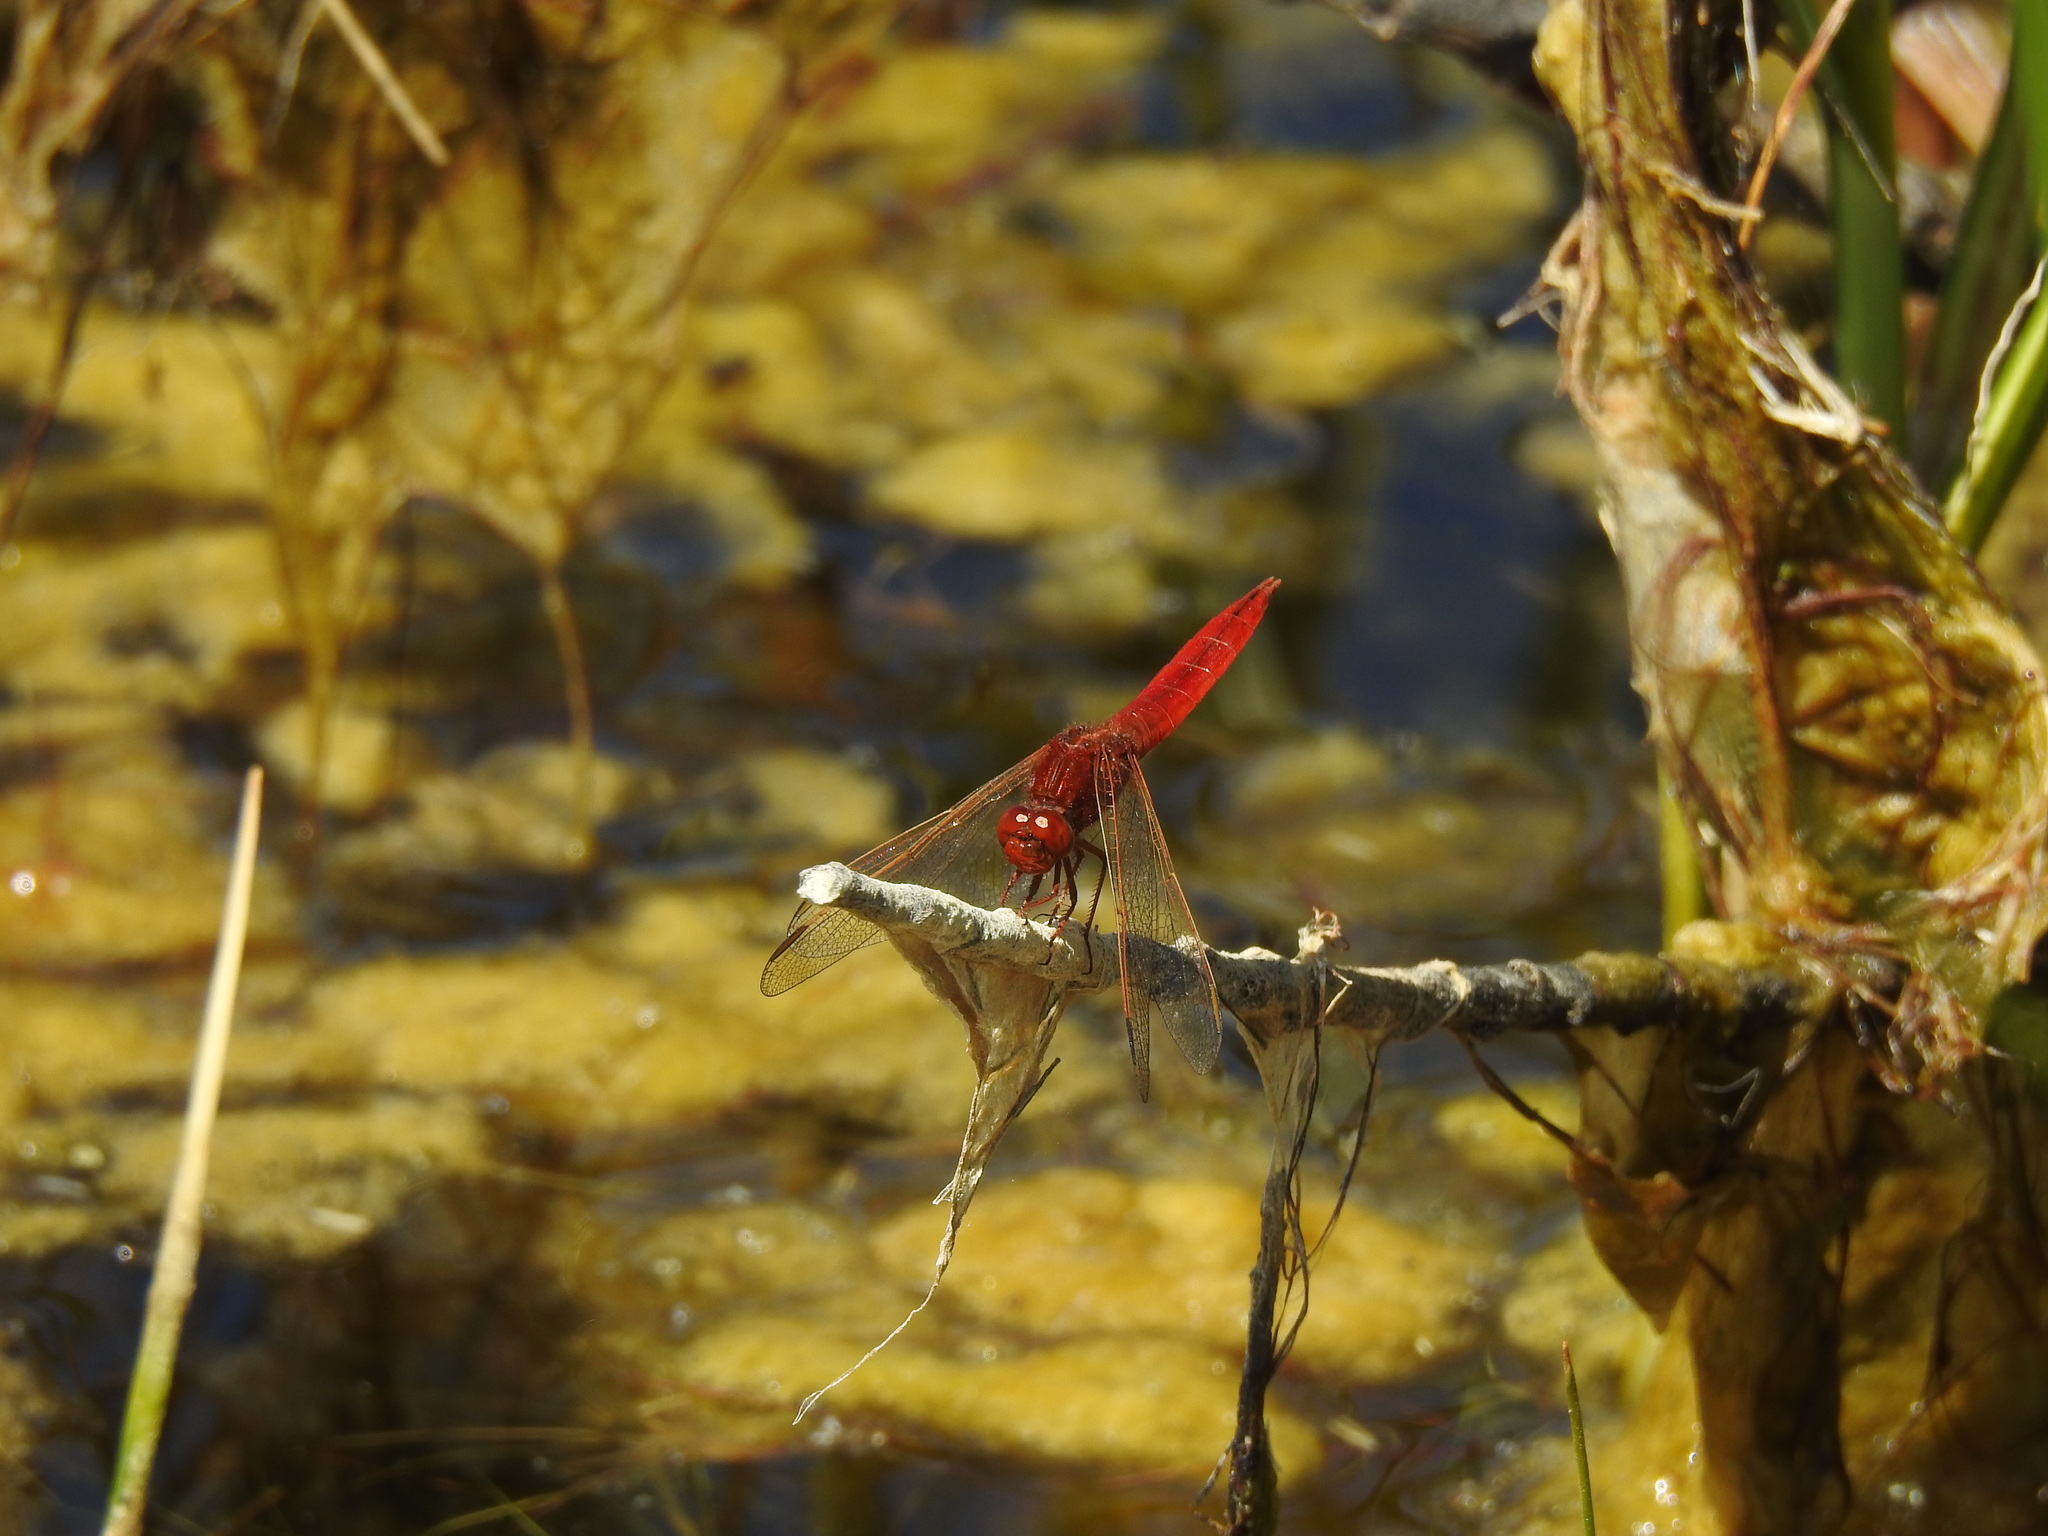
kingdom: Animalia
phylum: Arthropoda
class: Insecta
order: Odonata
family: Libellulidae
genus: Crocothemis
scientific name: Crocothemis erythraea
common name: Scarlet dragonfly
